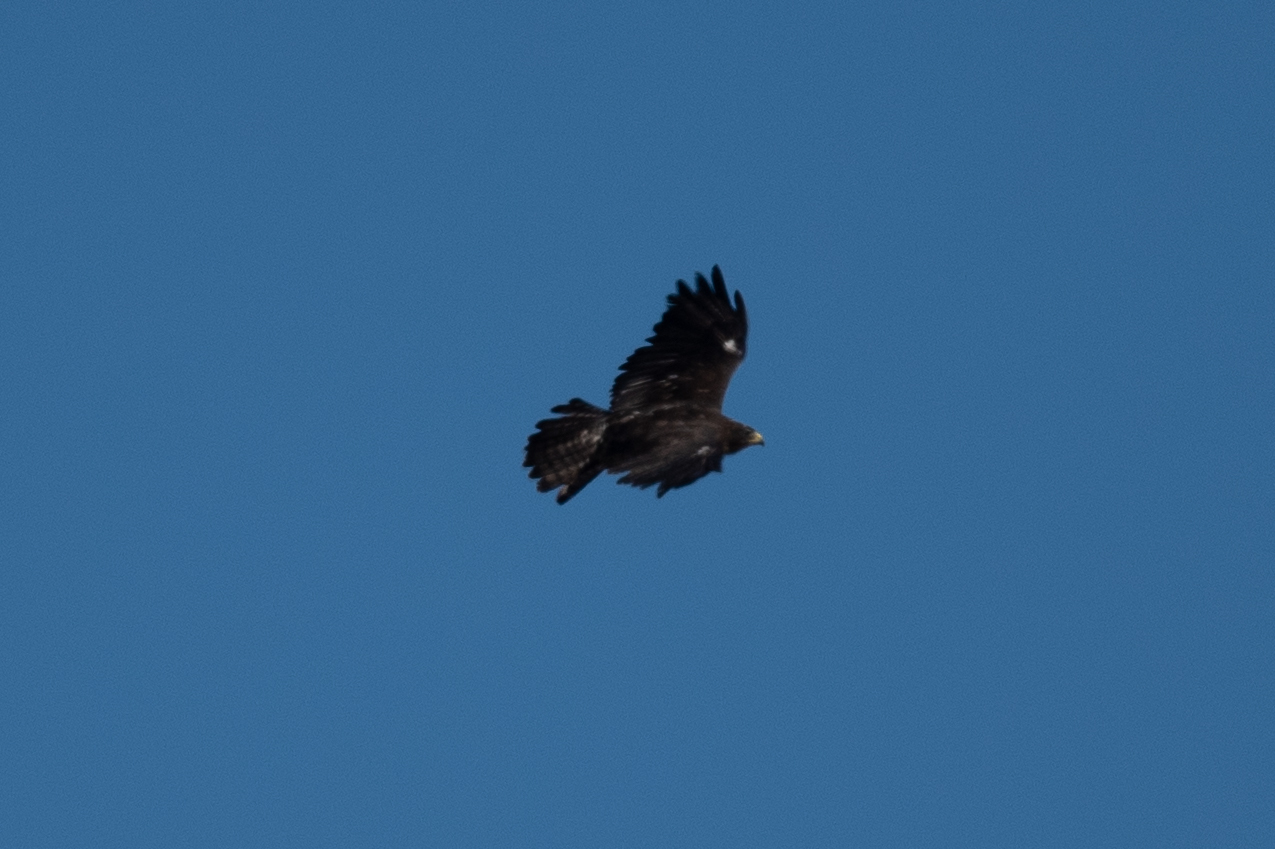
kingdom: Animalia
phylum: Chordata
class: Aves
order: Accipitriformes
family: Accipitridae
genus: Buteo
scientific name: Buteo swainsoni
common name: Swainson's hawk
